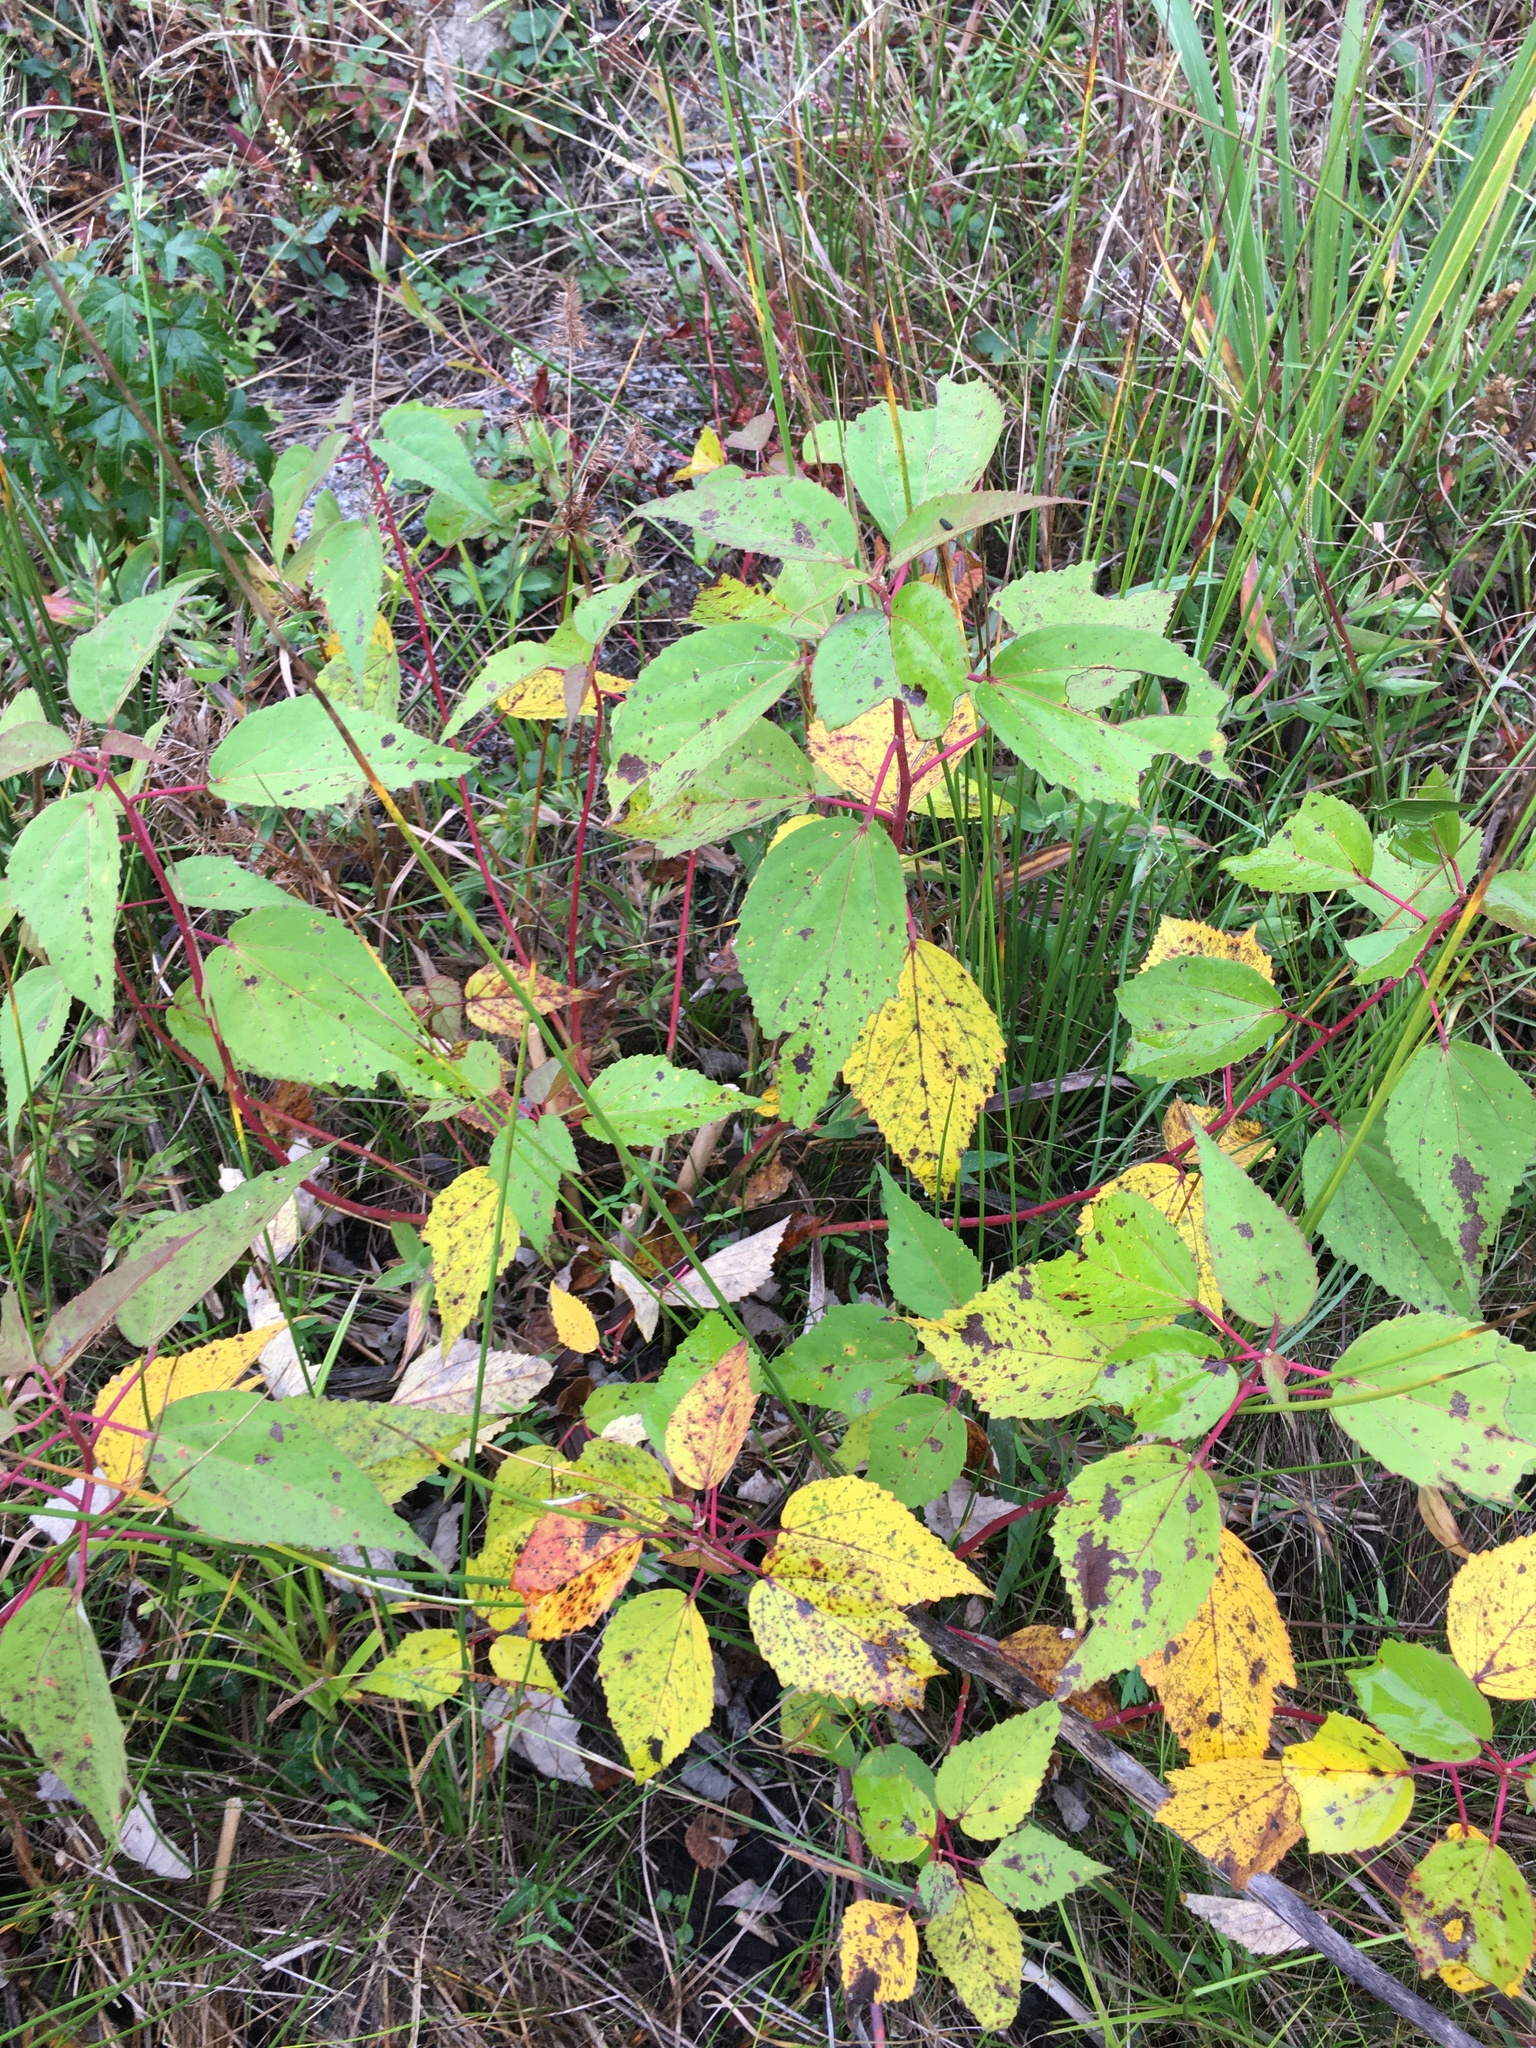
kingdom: Plantae
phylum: Tracheophyta
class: Magnoliopsida
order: Malvales
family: Malvaceae
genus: Hibiscus
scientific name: Hibiscus moscheutos
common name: Common rose-mallow
